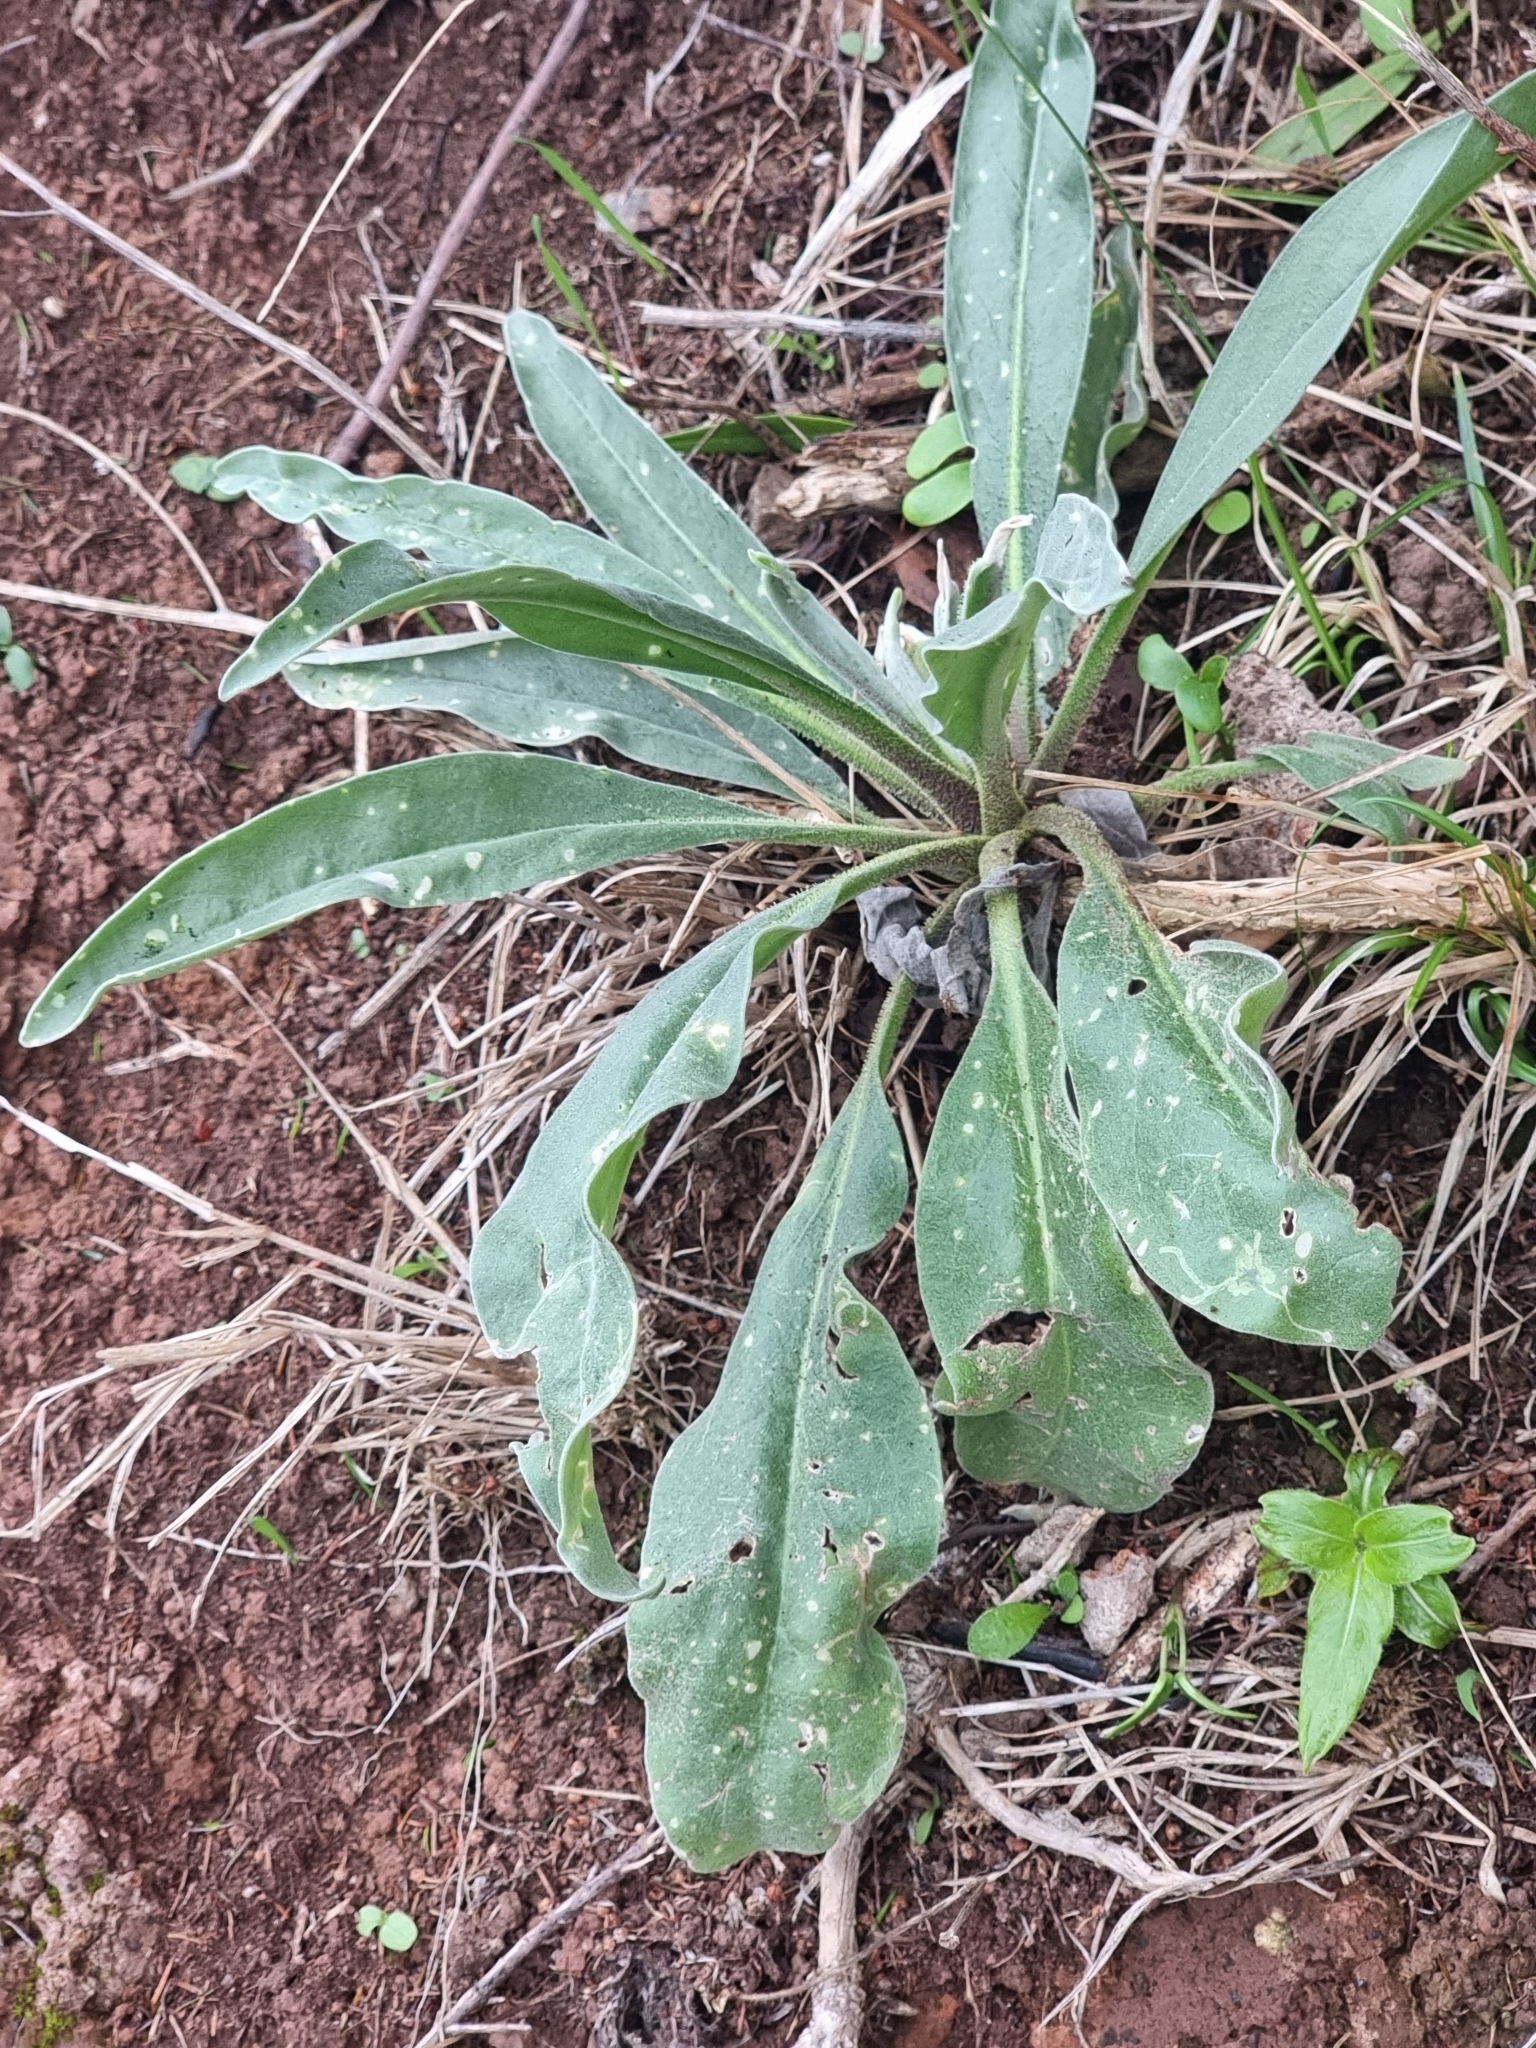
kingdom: Plantae
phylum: Tracheophyta
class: Magnoliopsida
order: Brassicales
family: Brassicaceae
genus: Matthiola
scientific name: Matthiola maderensis
